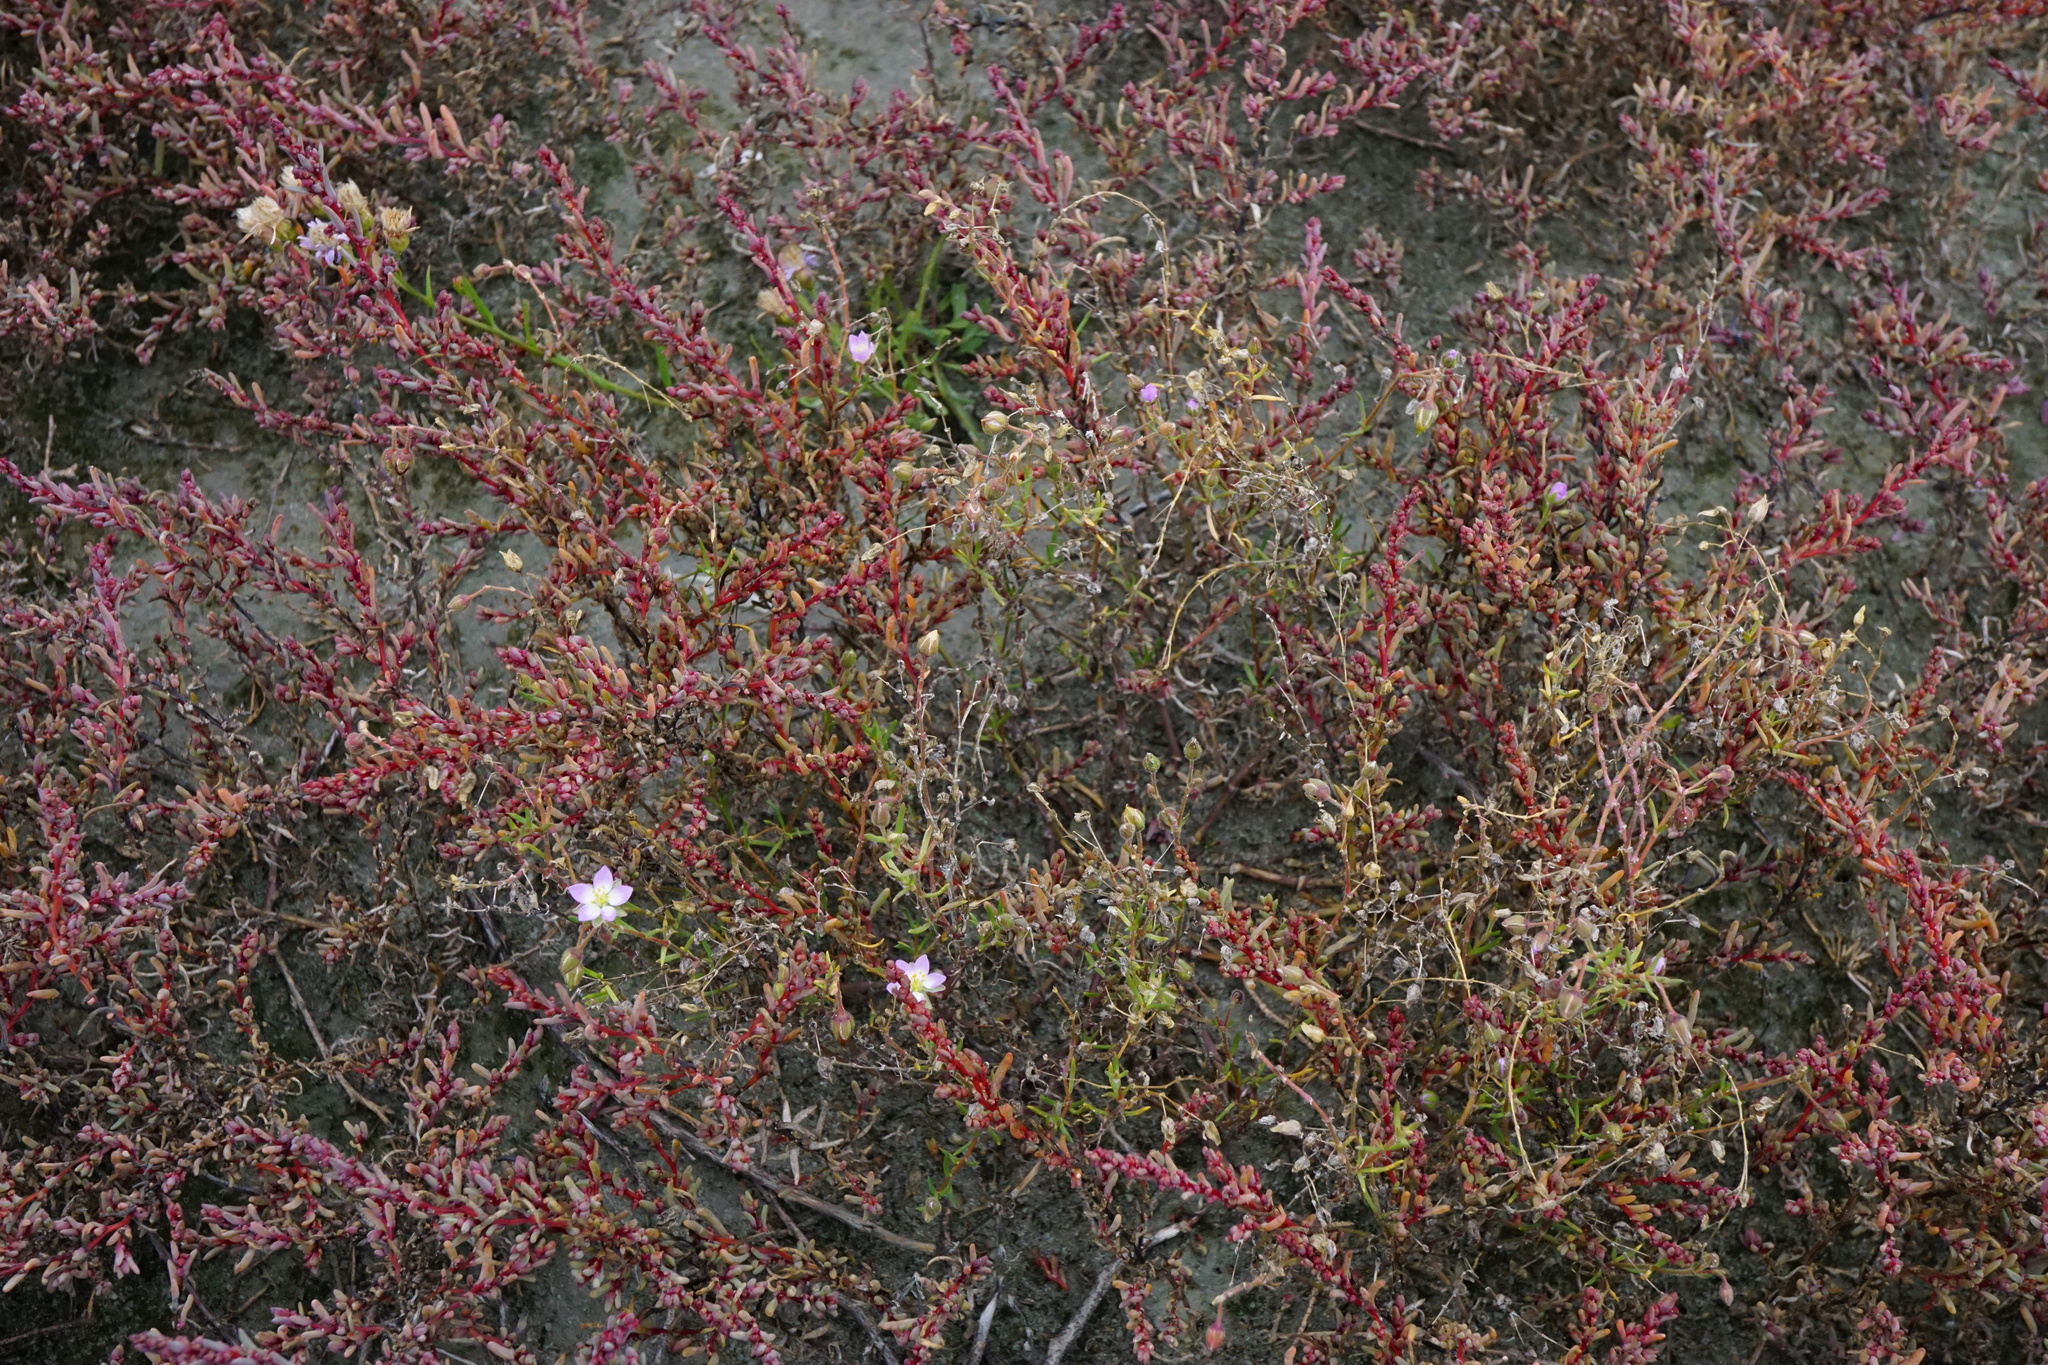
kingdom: Plantae
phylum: Tracheophyta
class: Magnoliopsida
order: Caryophyllales
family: Caryophyllaceae
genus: Spergularia
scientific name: Spergularia media
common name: Greater sea-spurrey
